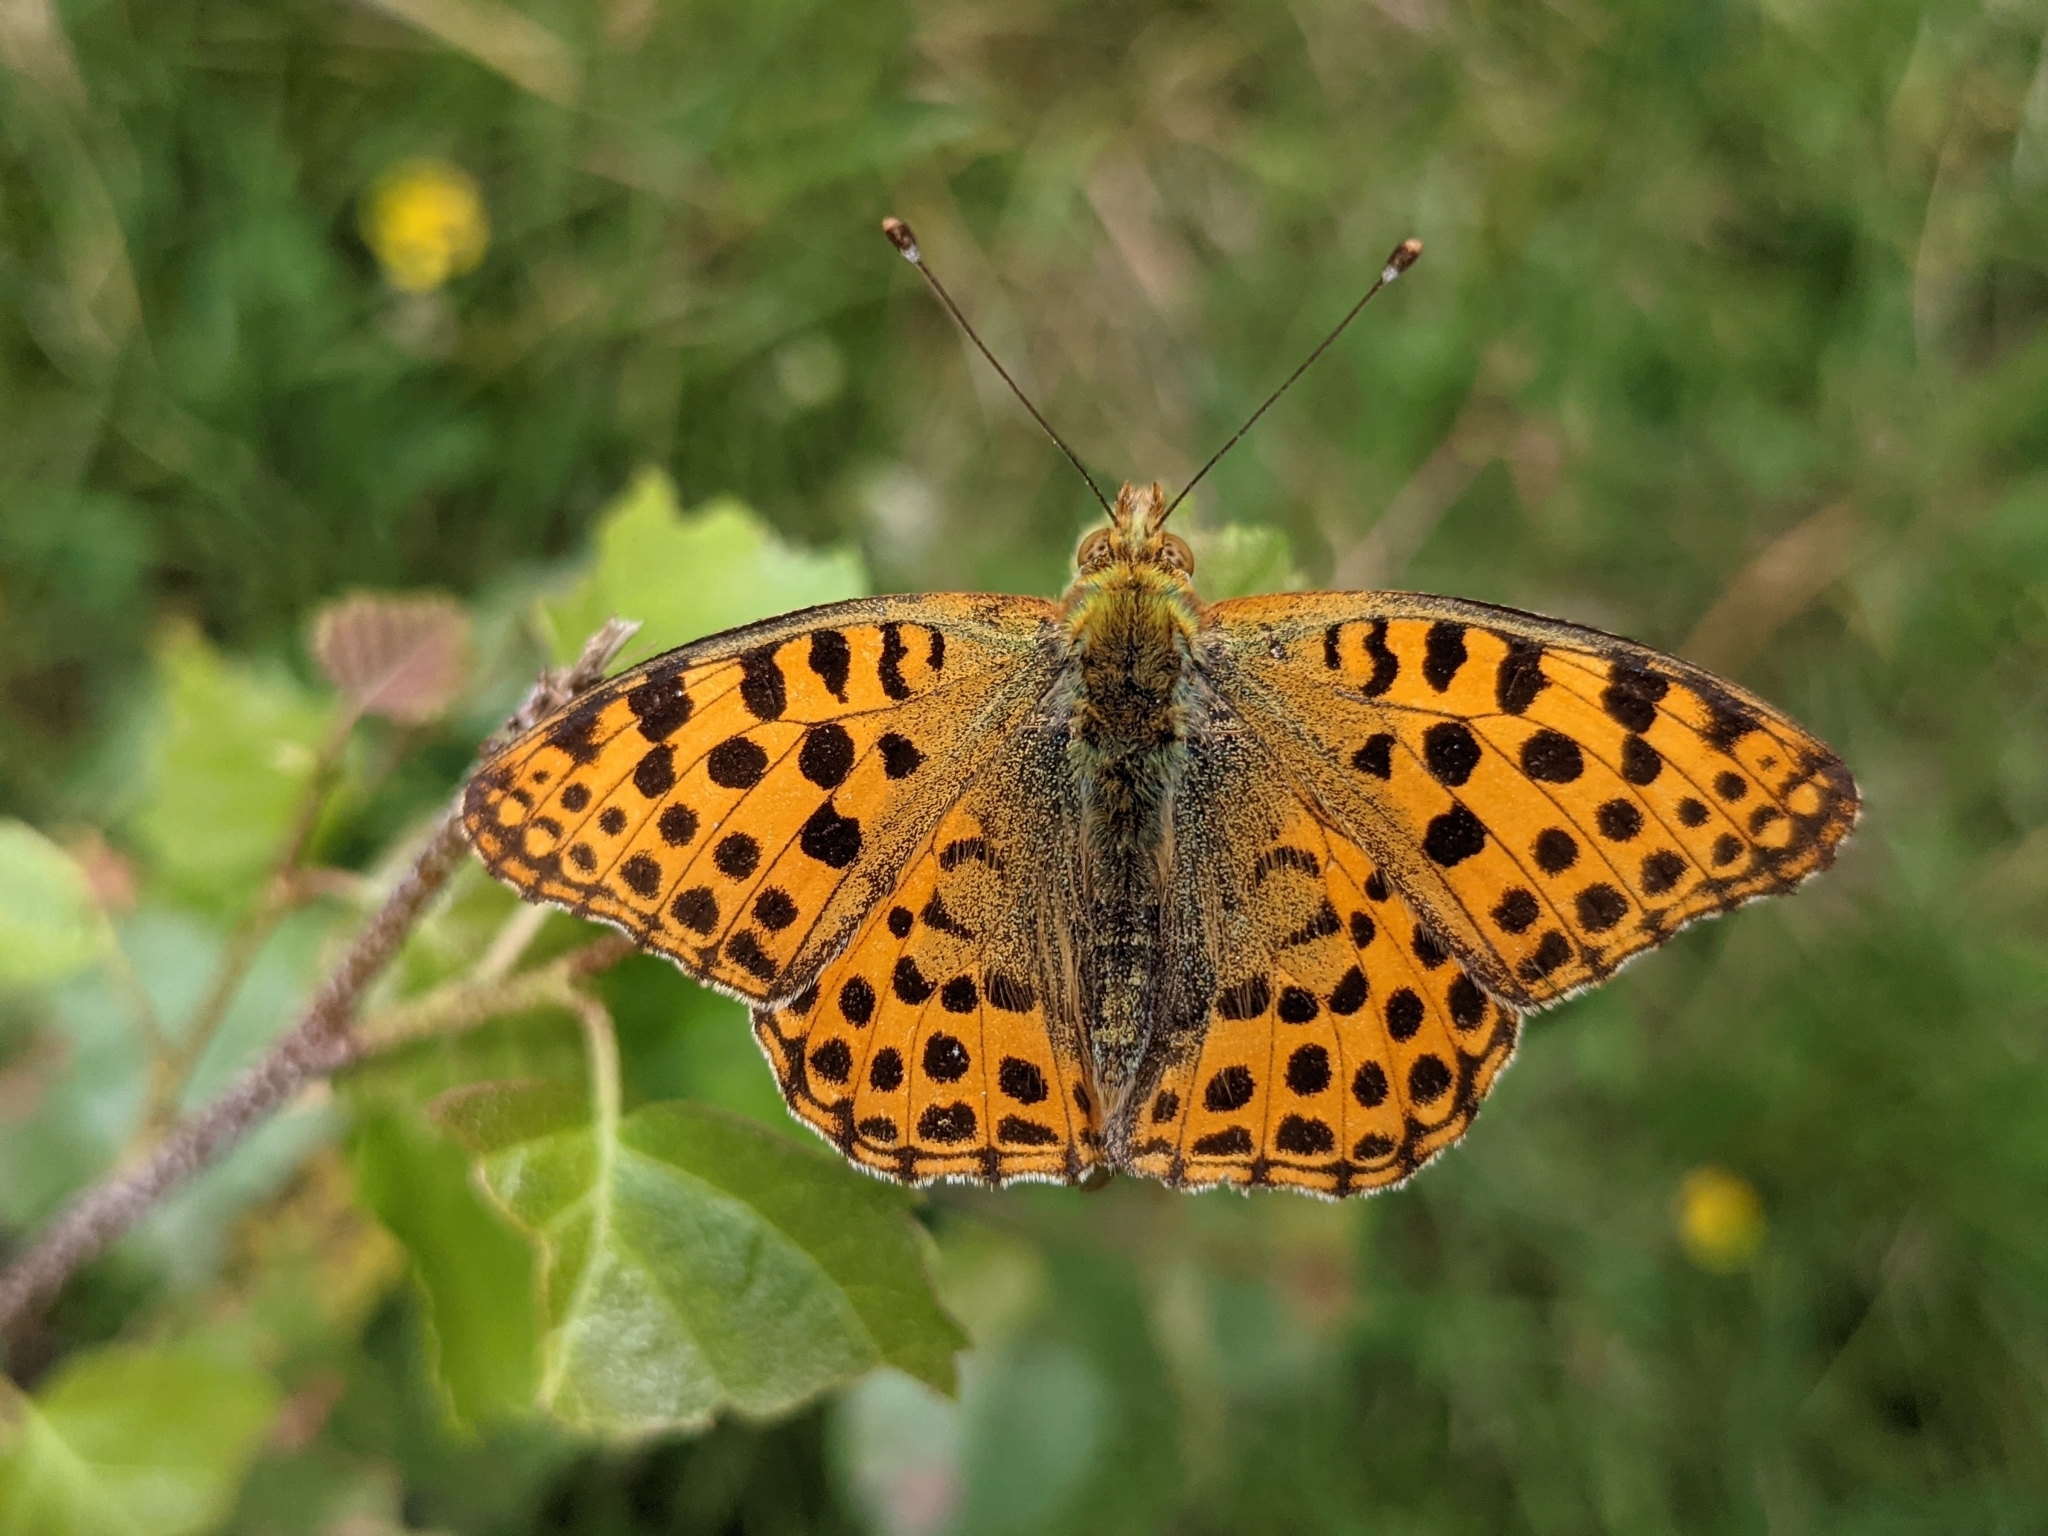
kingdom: Animalia
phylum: Arthropoda
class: Insecta
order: Lepidoptera
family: Nymphalidae
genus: Issoria
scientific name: Issoria lathonia
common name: Queen of spain fritillary
